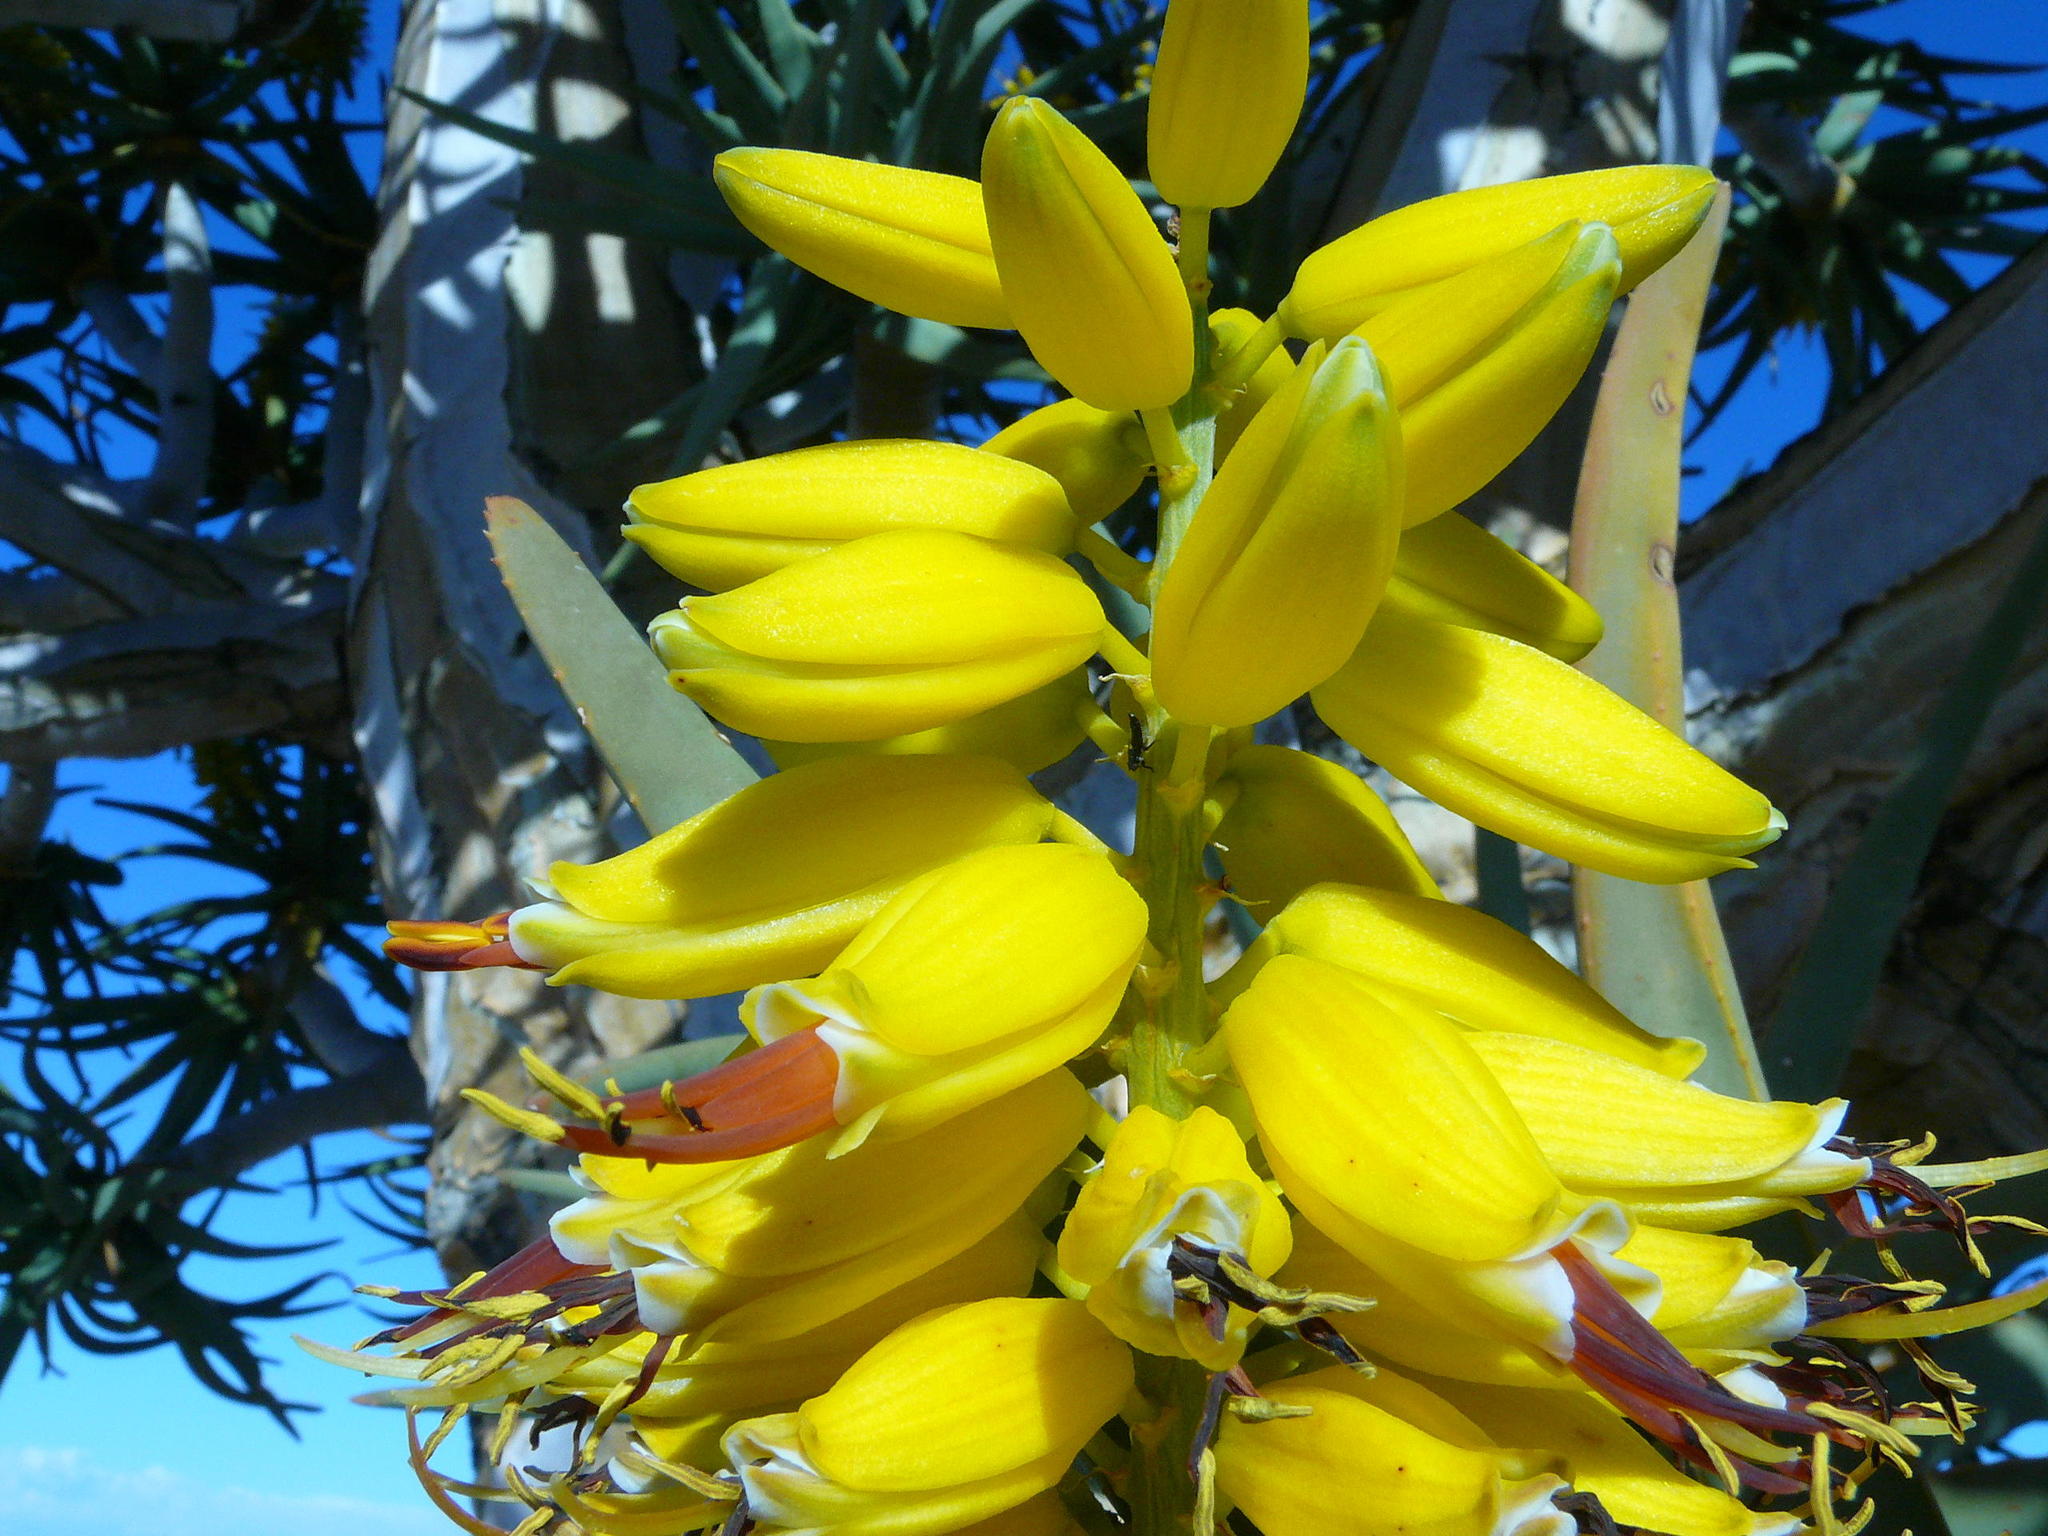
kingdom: Plantae
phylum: Tracheophyta
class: Liliopsida
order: Asparagales
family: Asphodelaceae
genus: Aloidendron
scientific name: Aloidendron dichotomum
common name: Quiver tree
